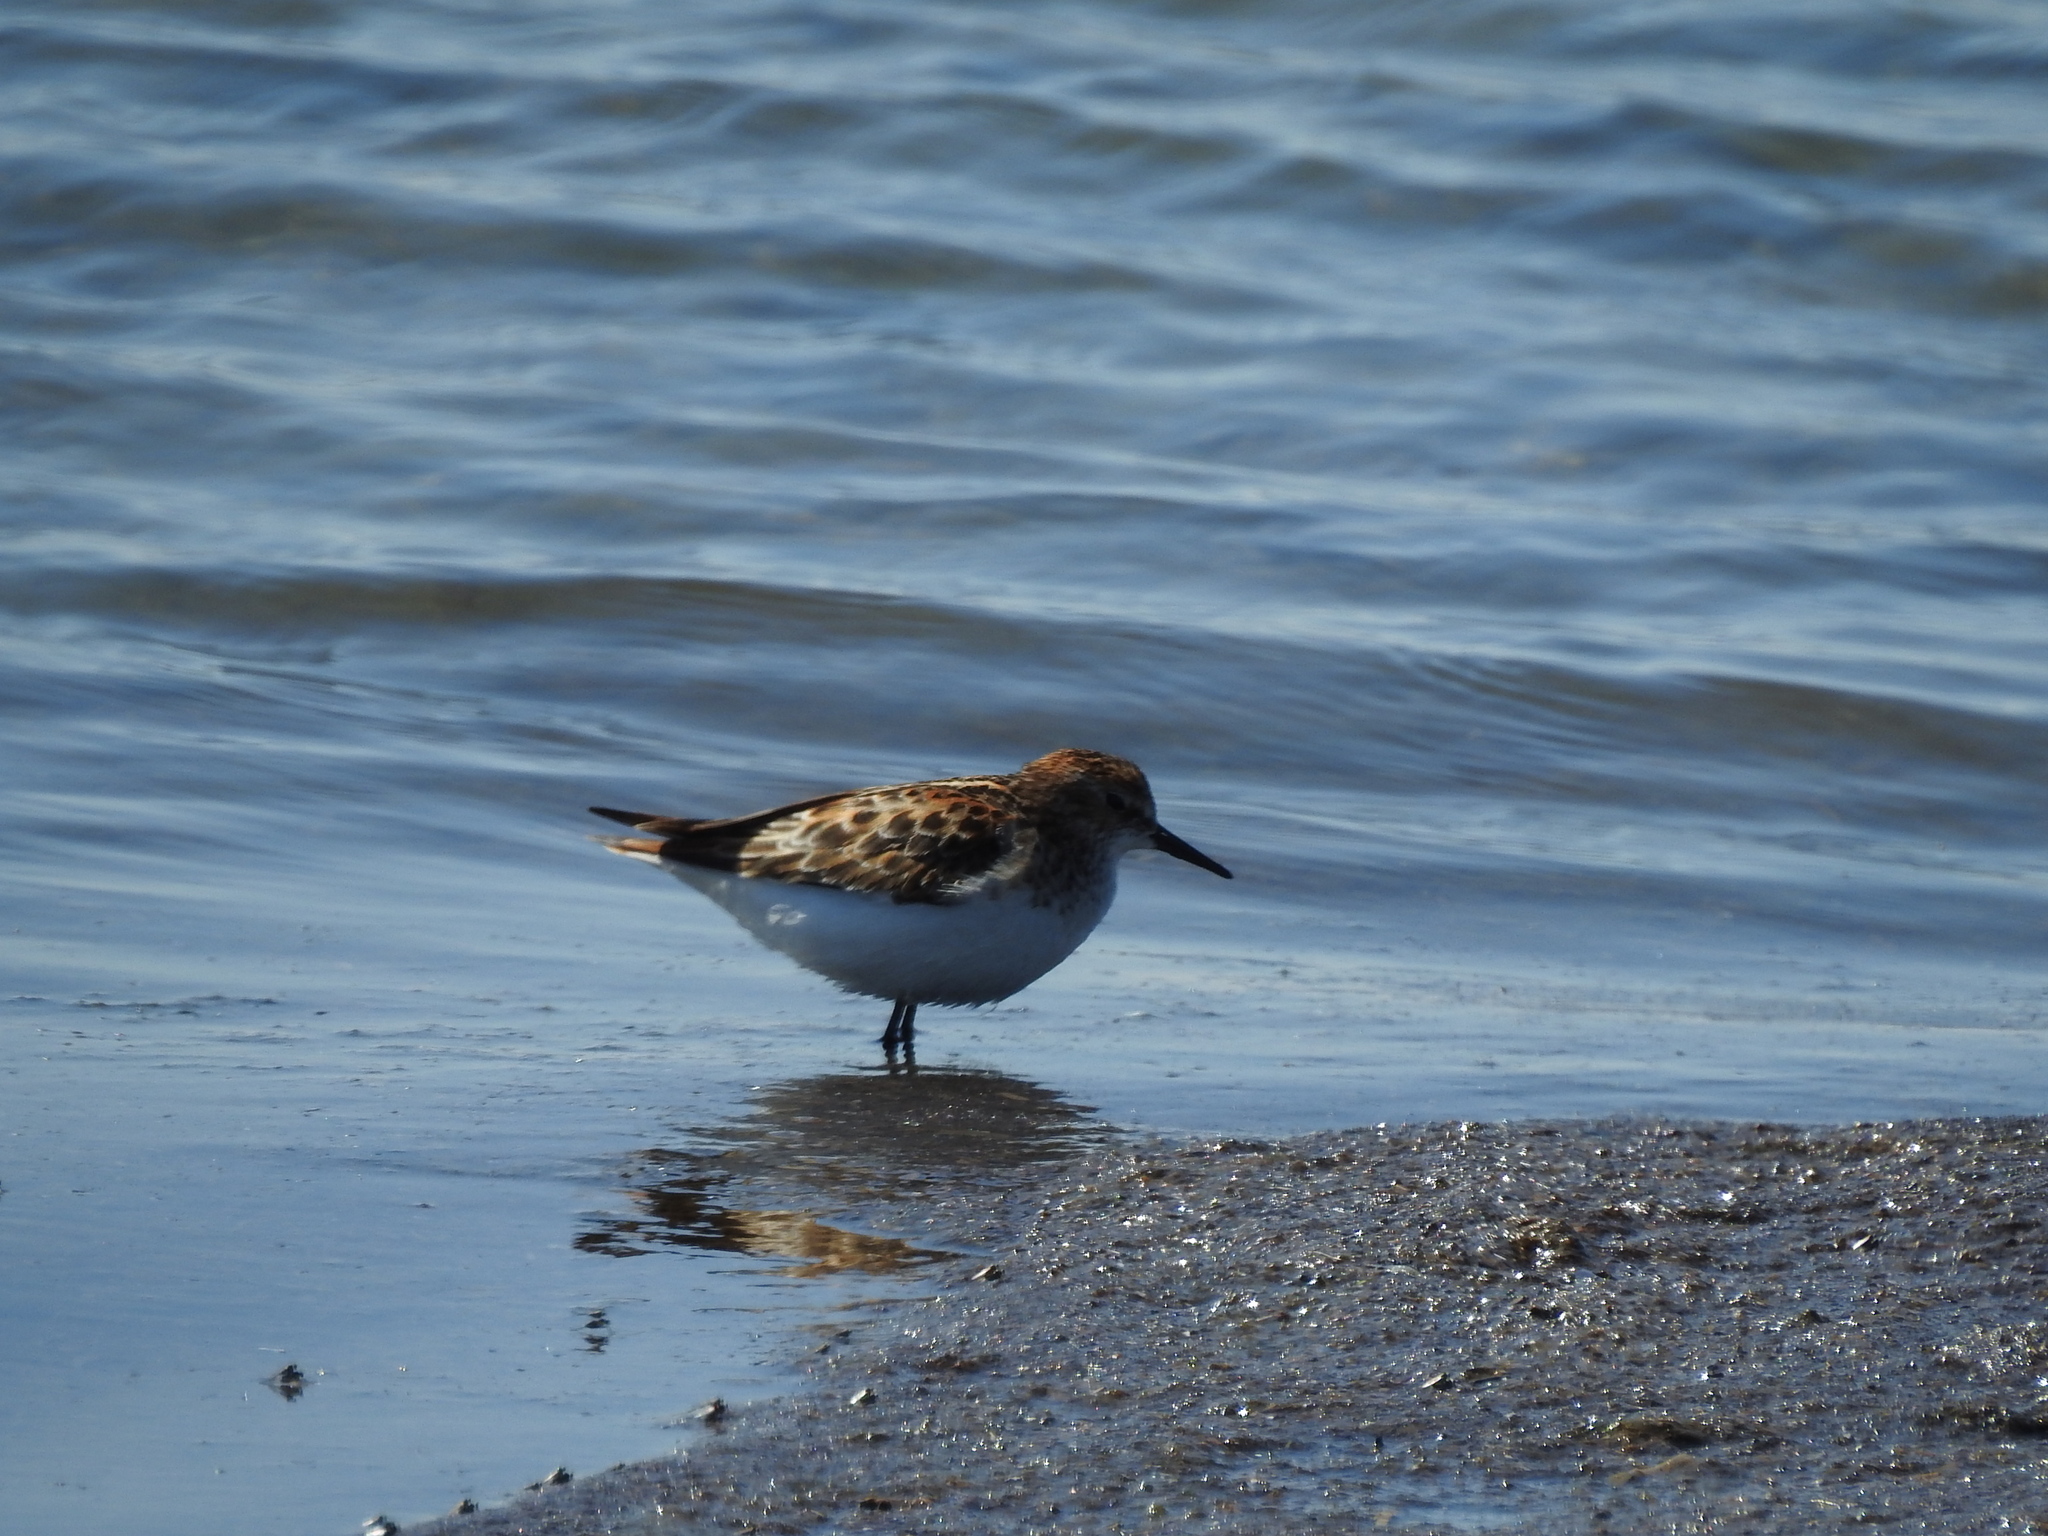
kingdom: Animalia
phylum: Chordata
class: Aves
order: Charadriiformes
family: Scolopacidae
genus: Calidris
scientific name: Calidris minuta
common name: Little stint
